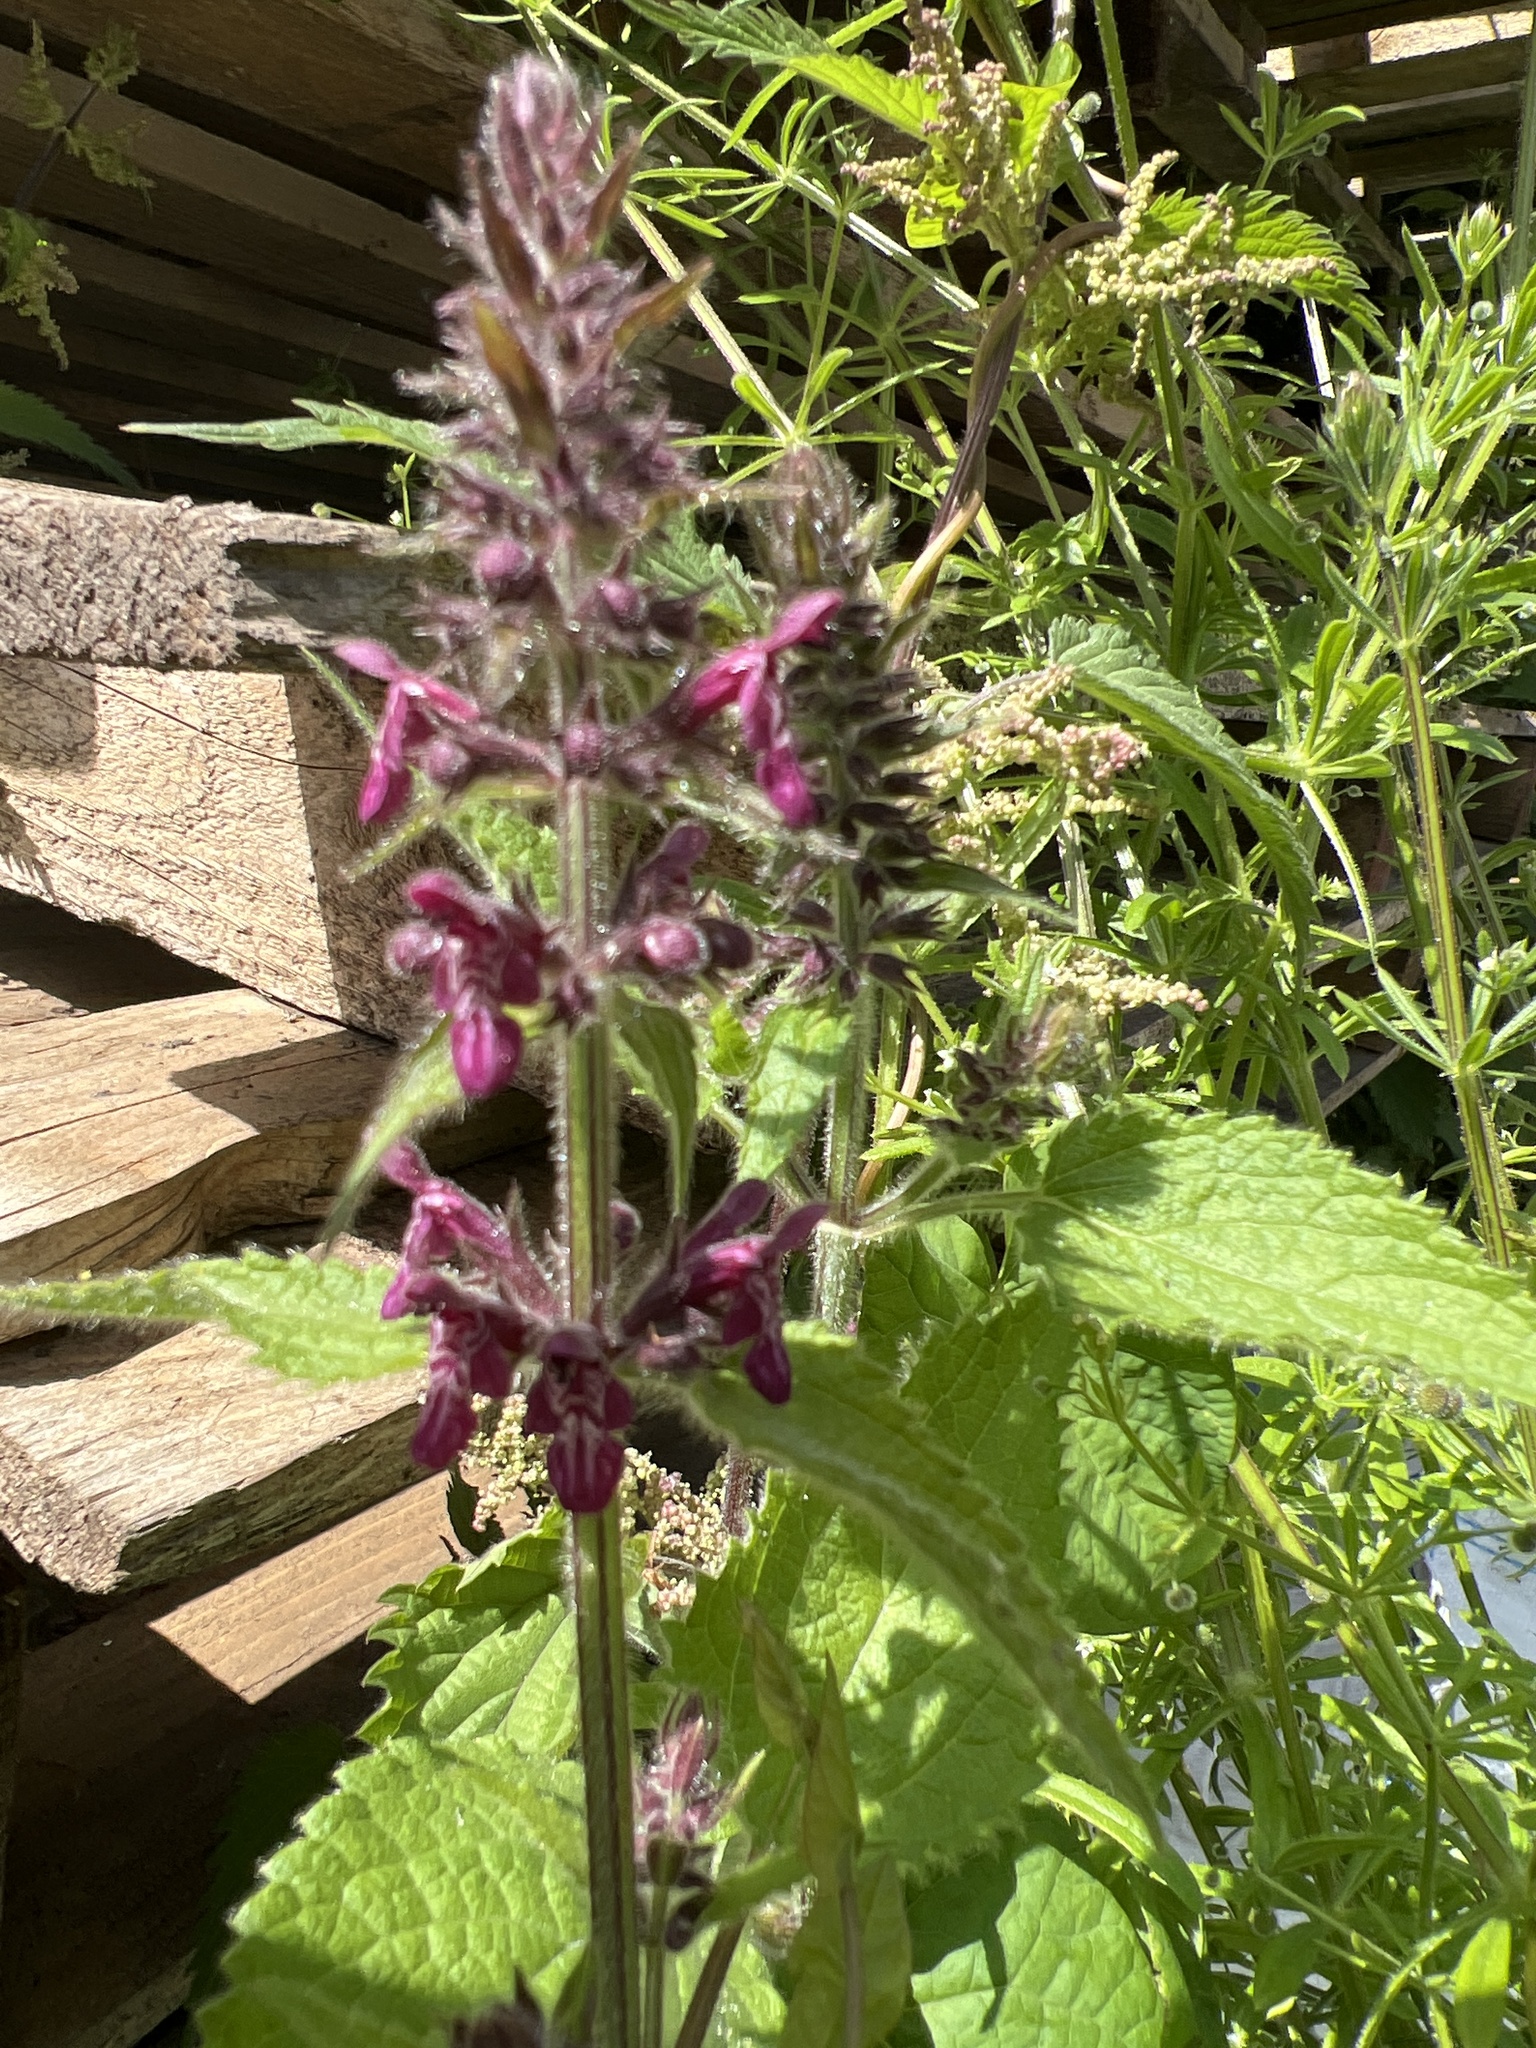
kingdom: Plantae
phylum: Tracheophyta
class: Magnoliopsida
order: Lamiales
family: Lamiaceae
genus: Stachys
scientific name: Stachys sylvatica
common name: Hedge woundwort
